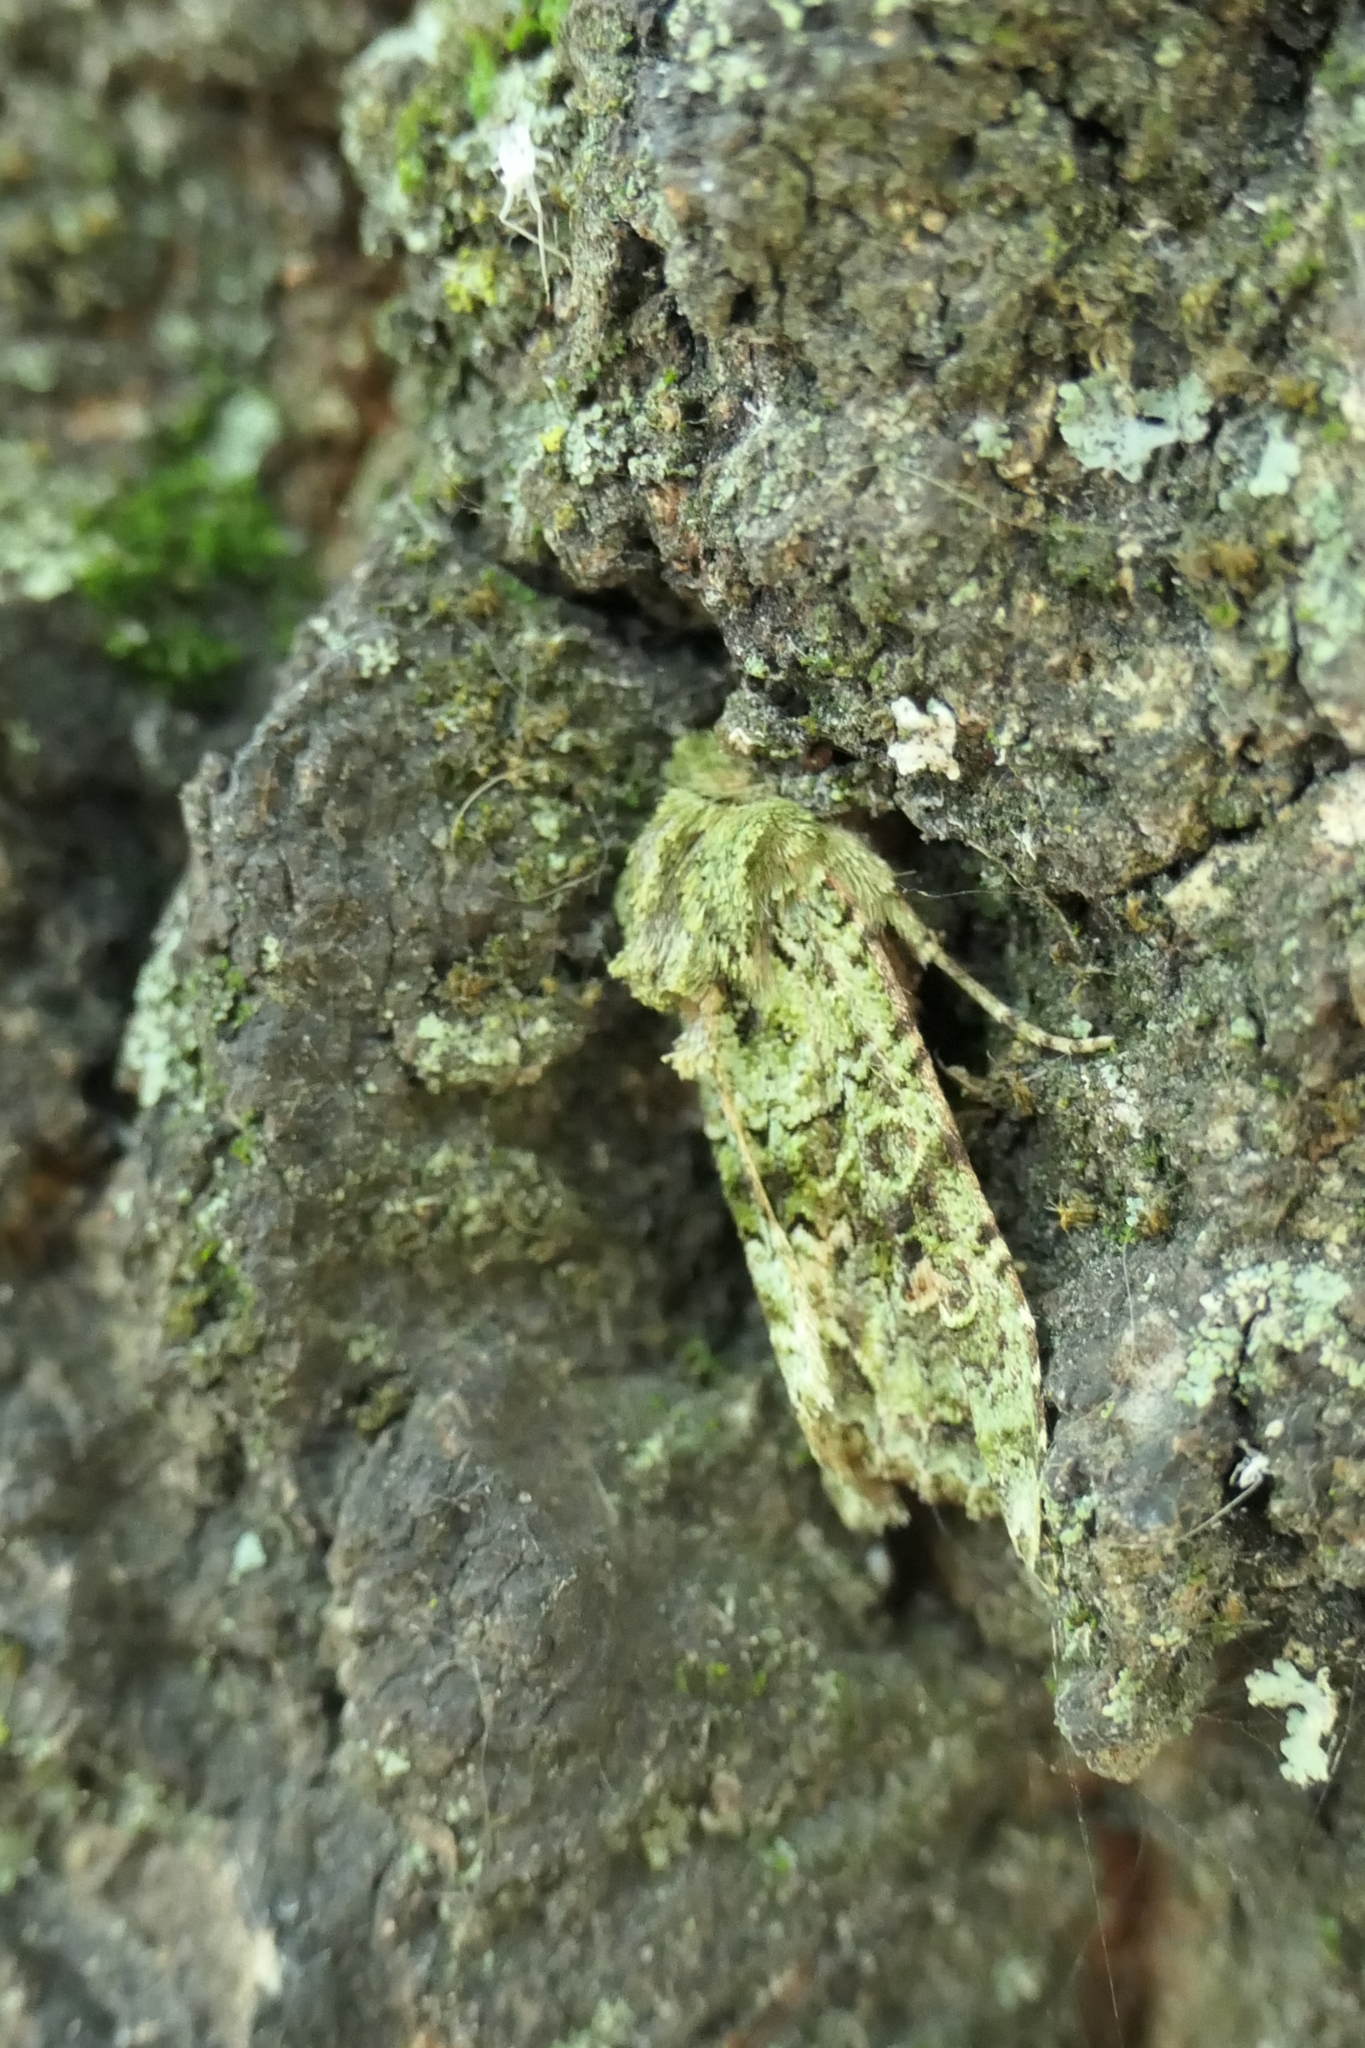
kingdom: Animalia
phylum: Arthropoda
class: Insecta
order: Lepidoptera
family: Noctuidae
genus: Ichneutica
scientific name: Ichneutica
